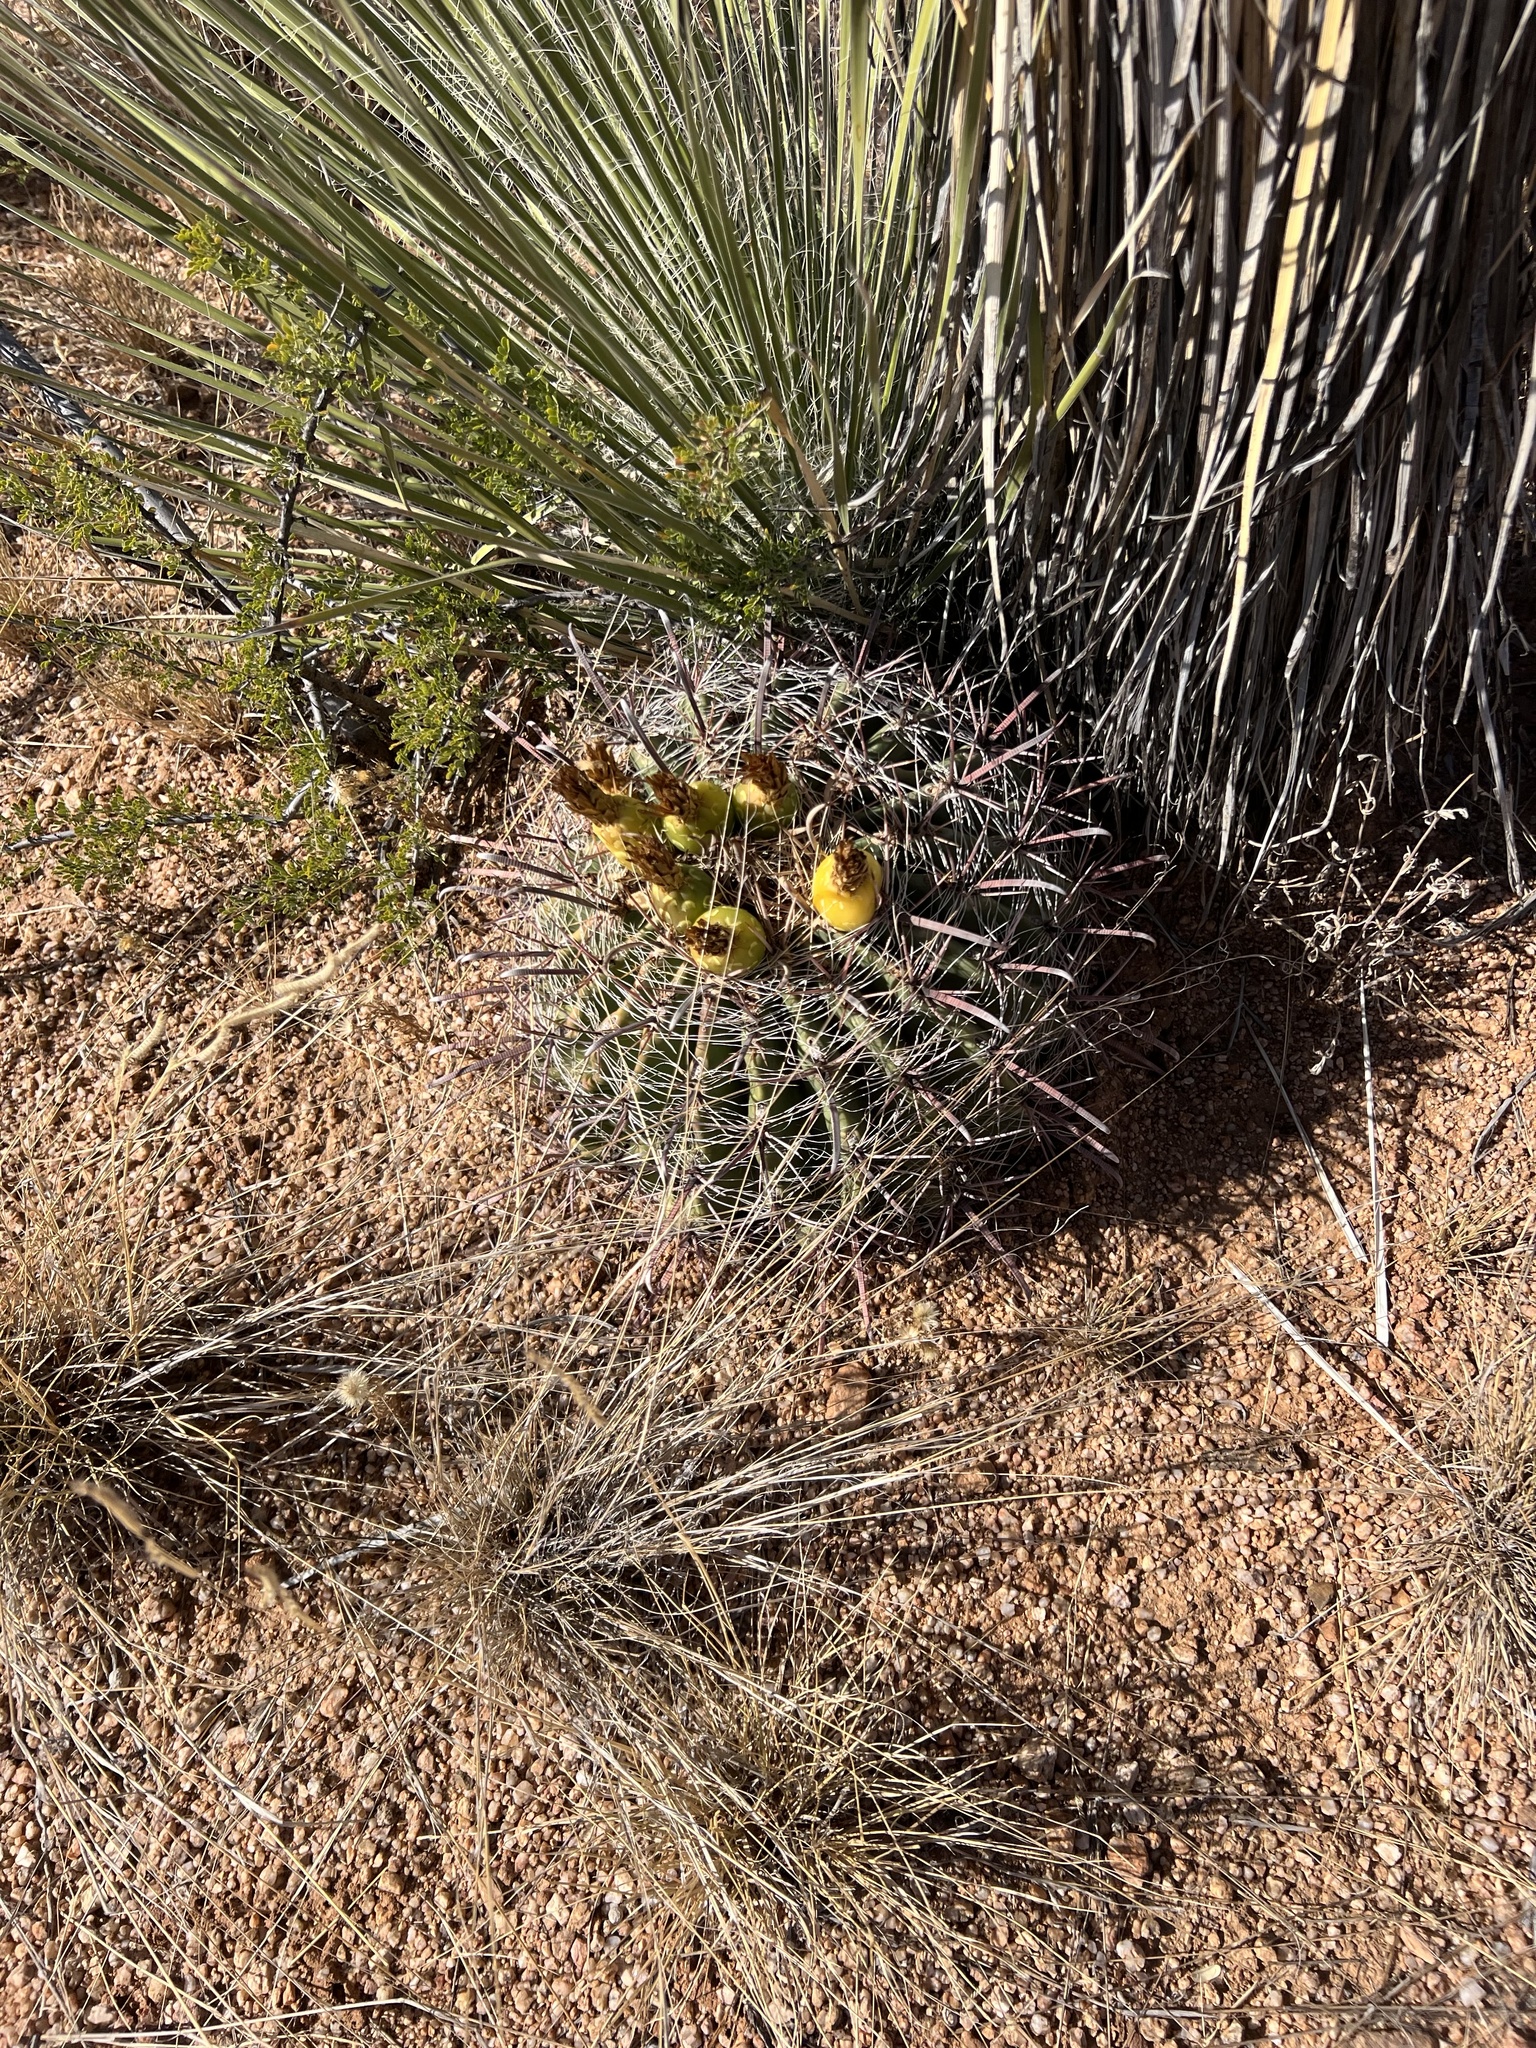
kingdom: Plantae
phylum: Tracheophyta
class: Magnoliopsida
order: Caryophyllales
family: Cactaceae
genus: Ferocactus
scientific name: Ferocactus wislizeni
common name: Candy barrel cactus
